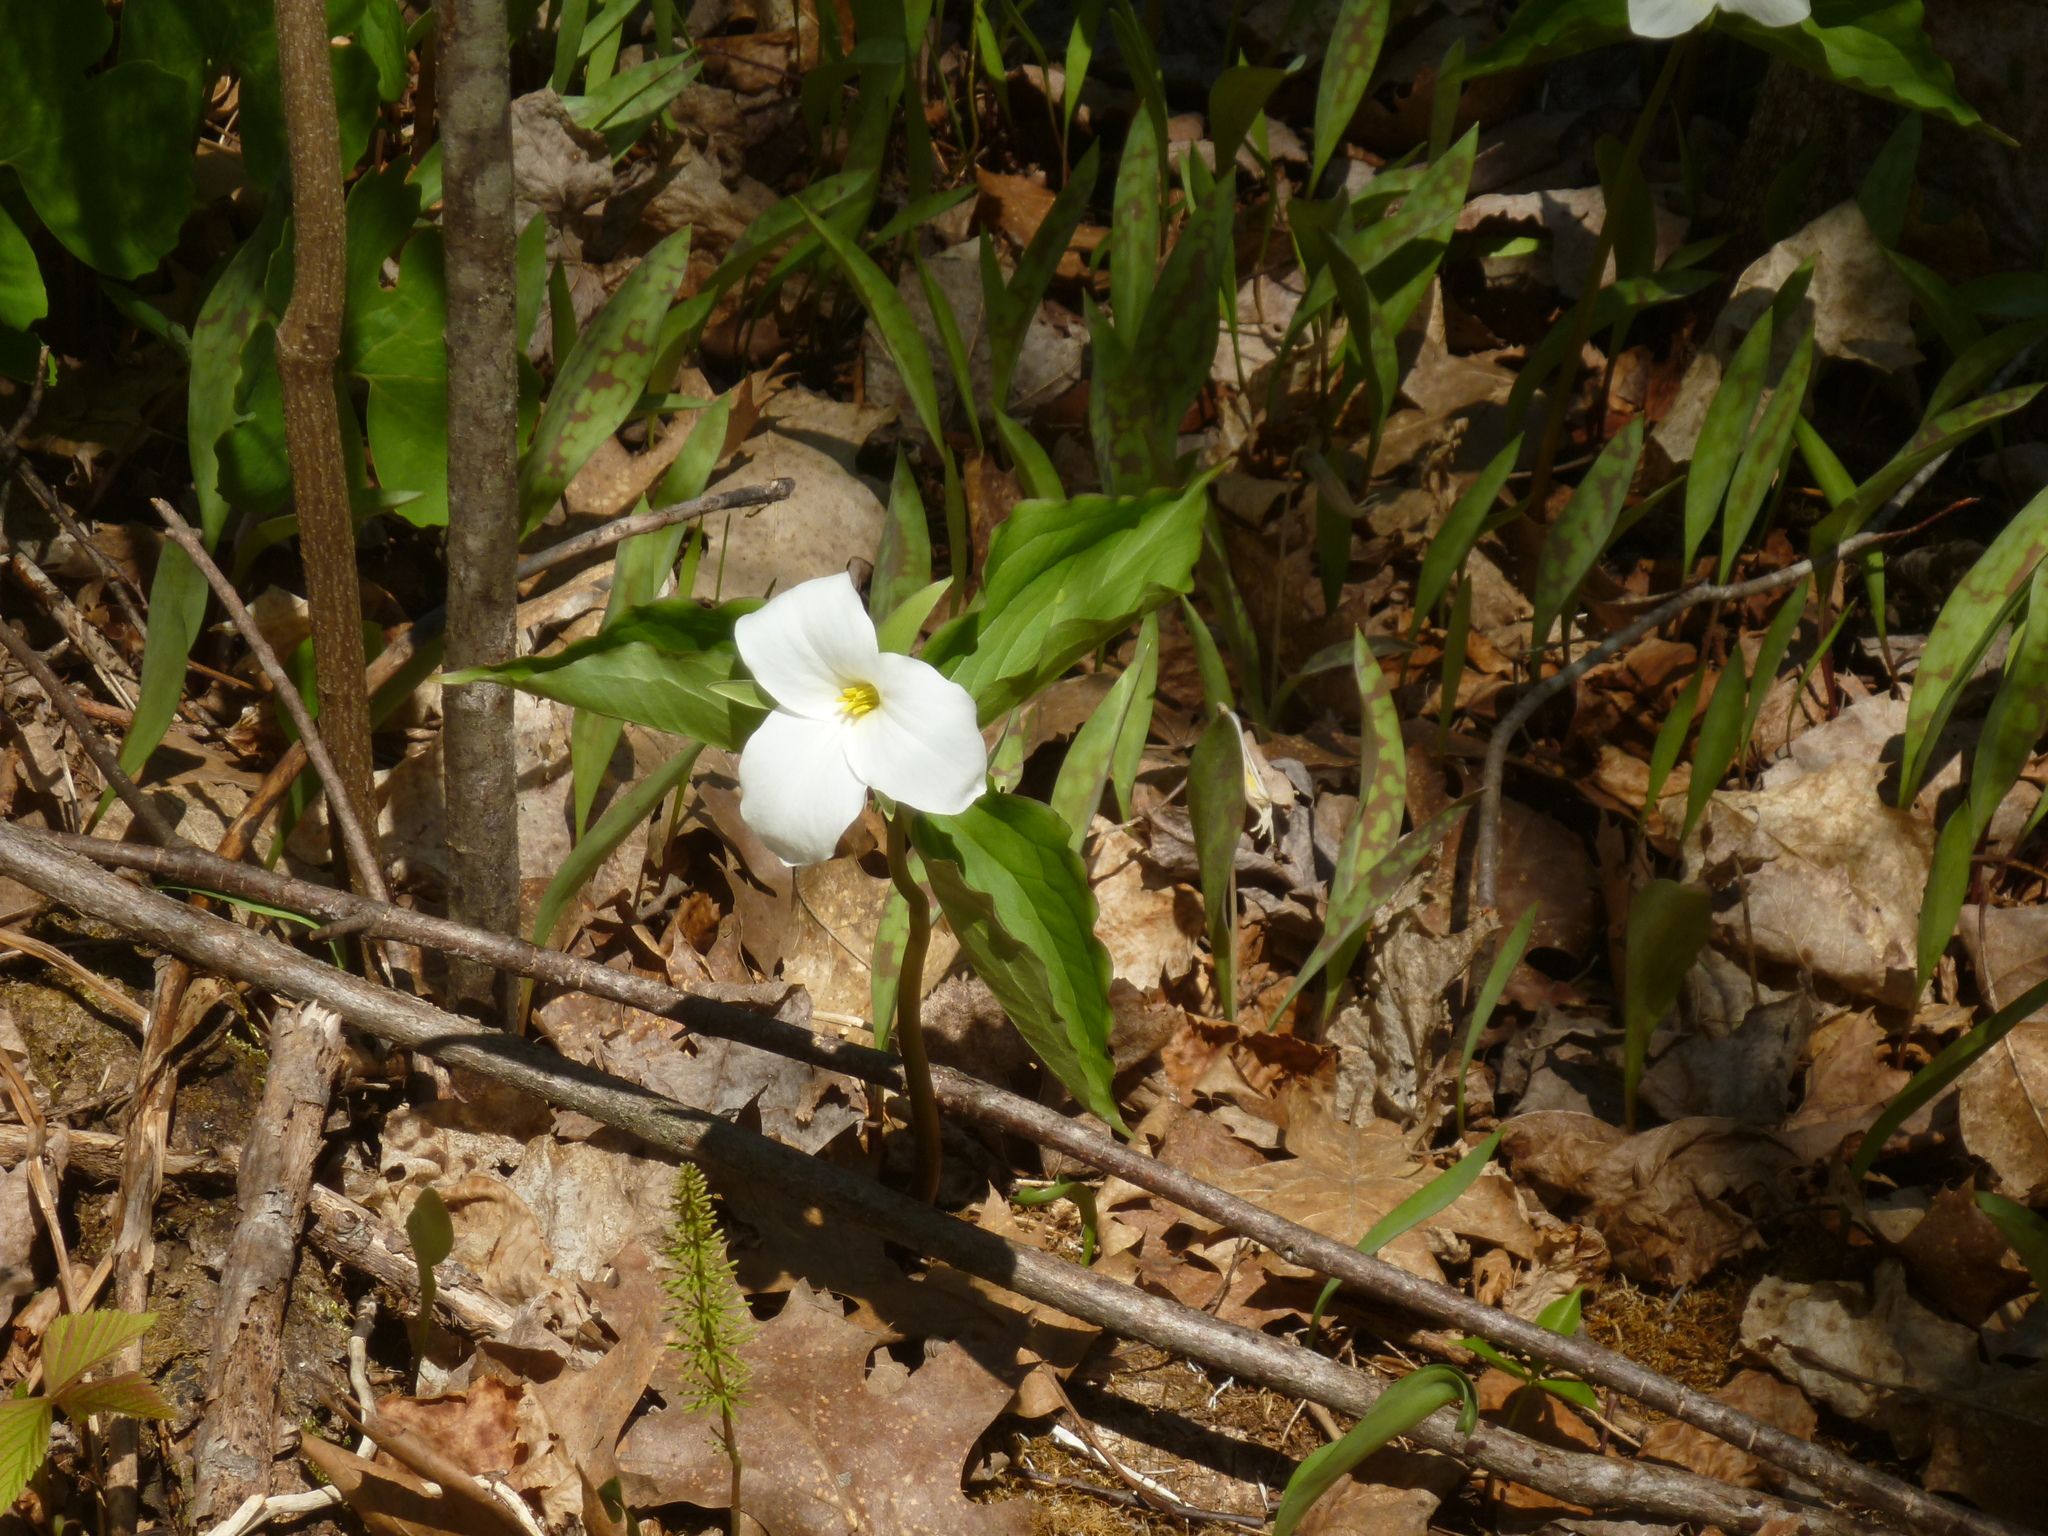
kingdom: Plantae
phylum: Tracheophyta
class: Liliopsida
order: Liliales
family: Melanthiaceae
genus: Trillium
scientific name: Trillium grandiflorum
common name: Great white trillium
